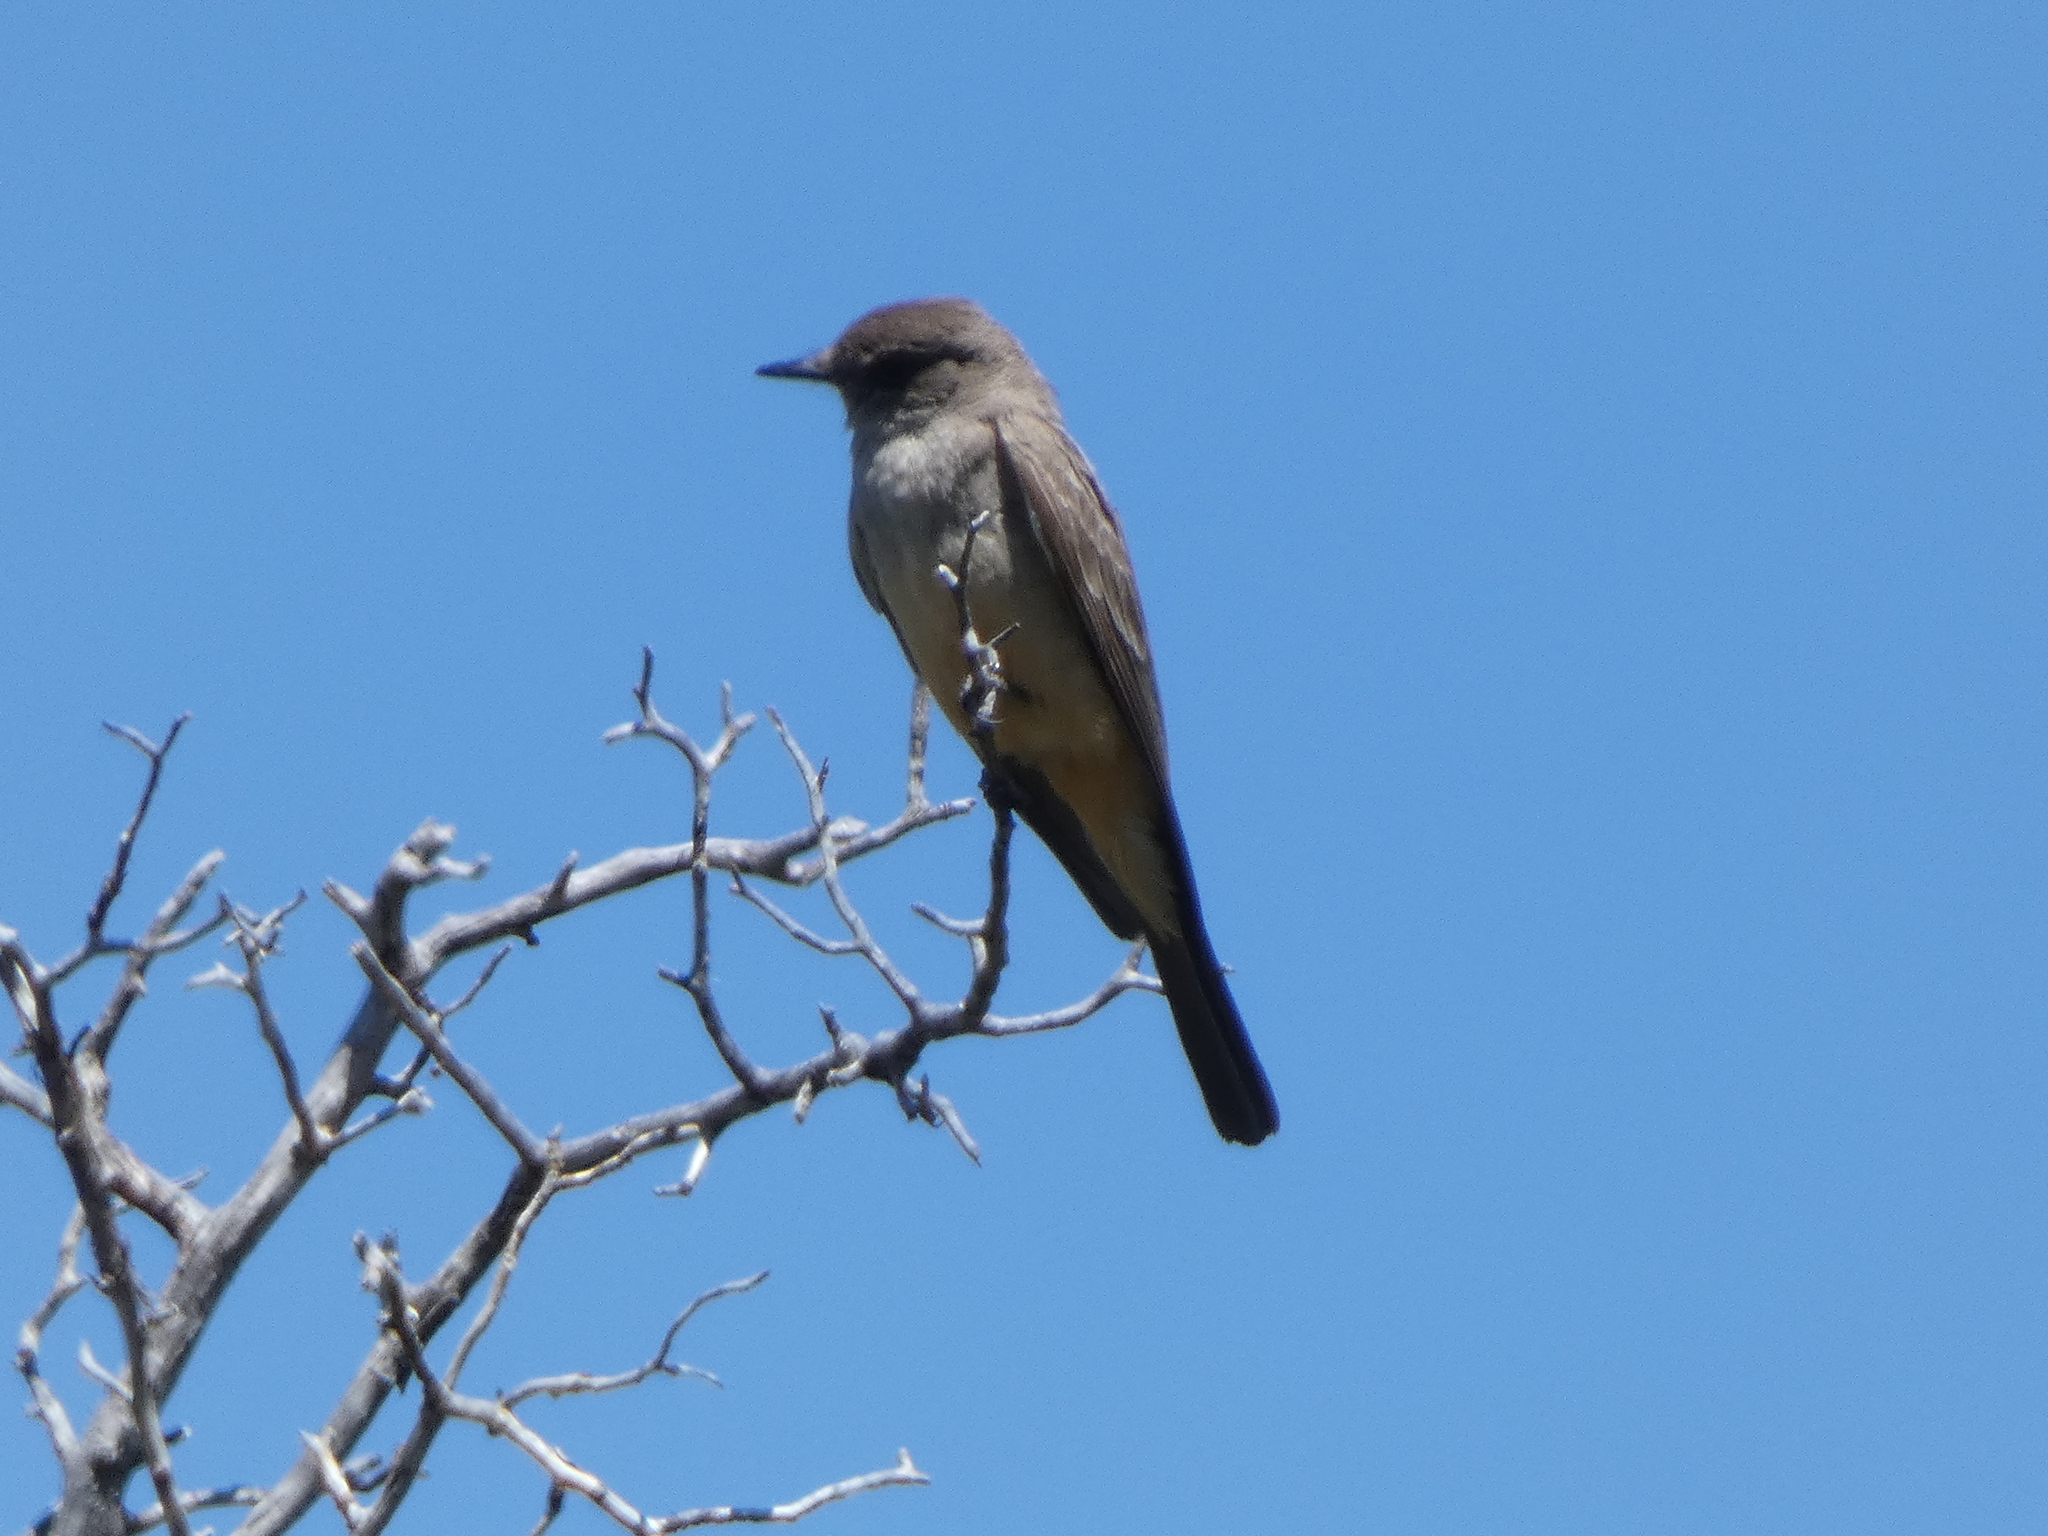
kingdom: Animalia
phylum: Chordata
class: Aves
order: Passeriformes
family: Tyrannidae
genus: Sayornis
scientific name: Sayornis saya
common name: Say's phoebe
